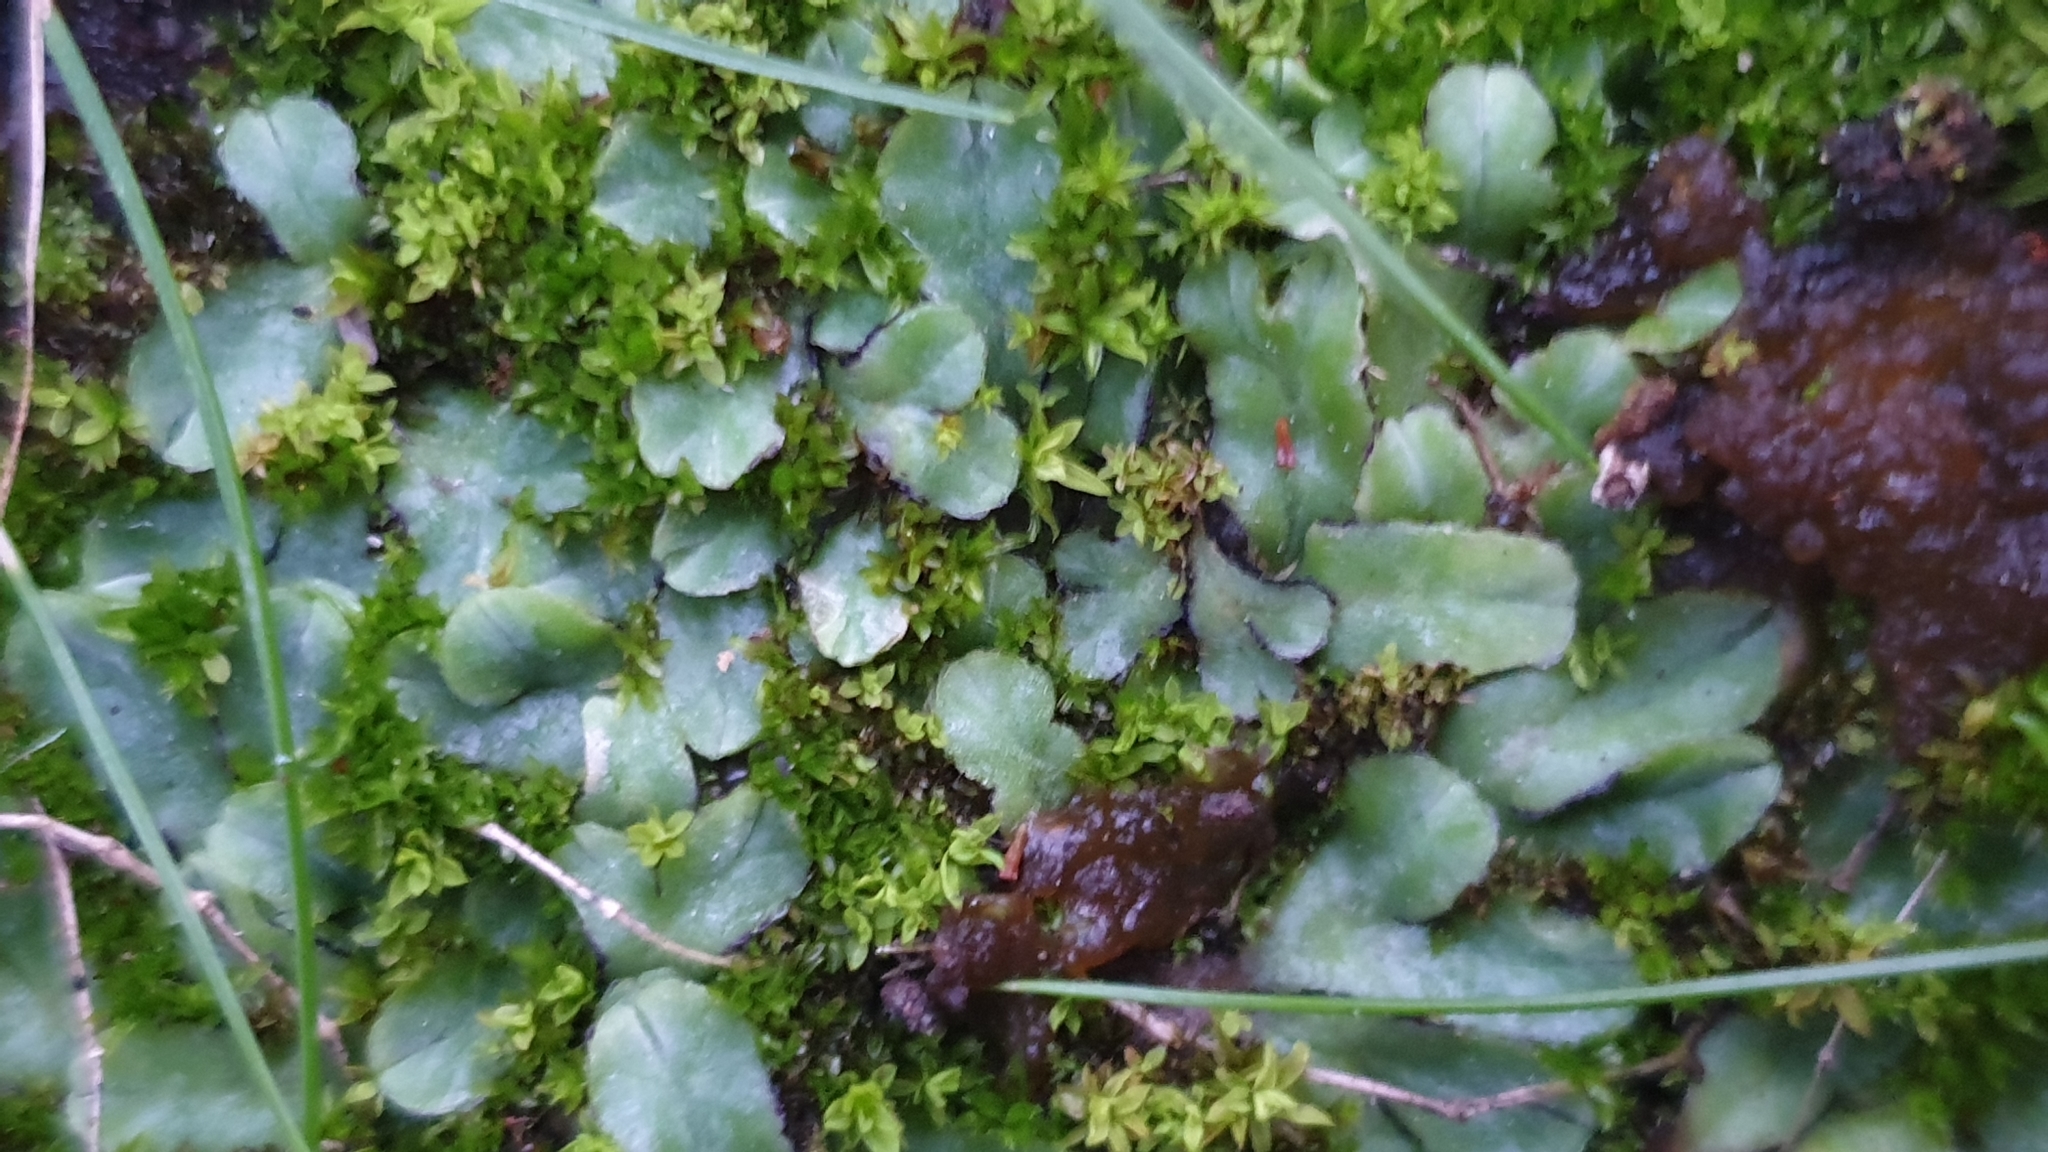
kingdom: Plantae
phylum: Marchantiophyta
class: Marchantiopsida
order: Marchantiales
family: Ricciaceae
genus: Riccia
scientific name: Riccia inflexa
